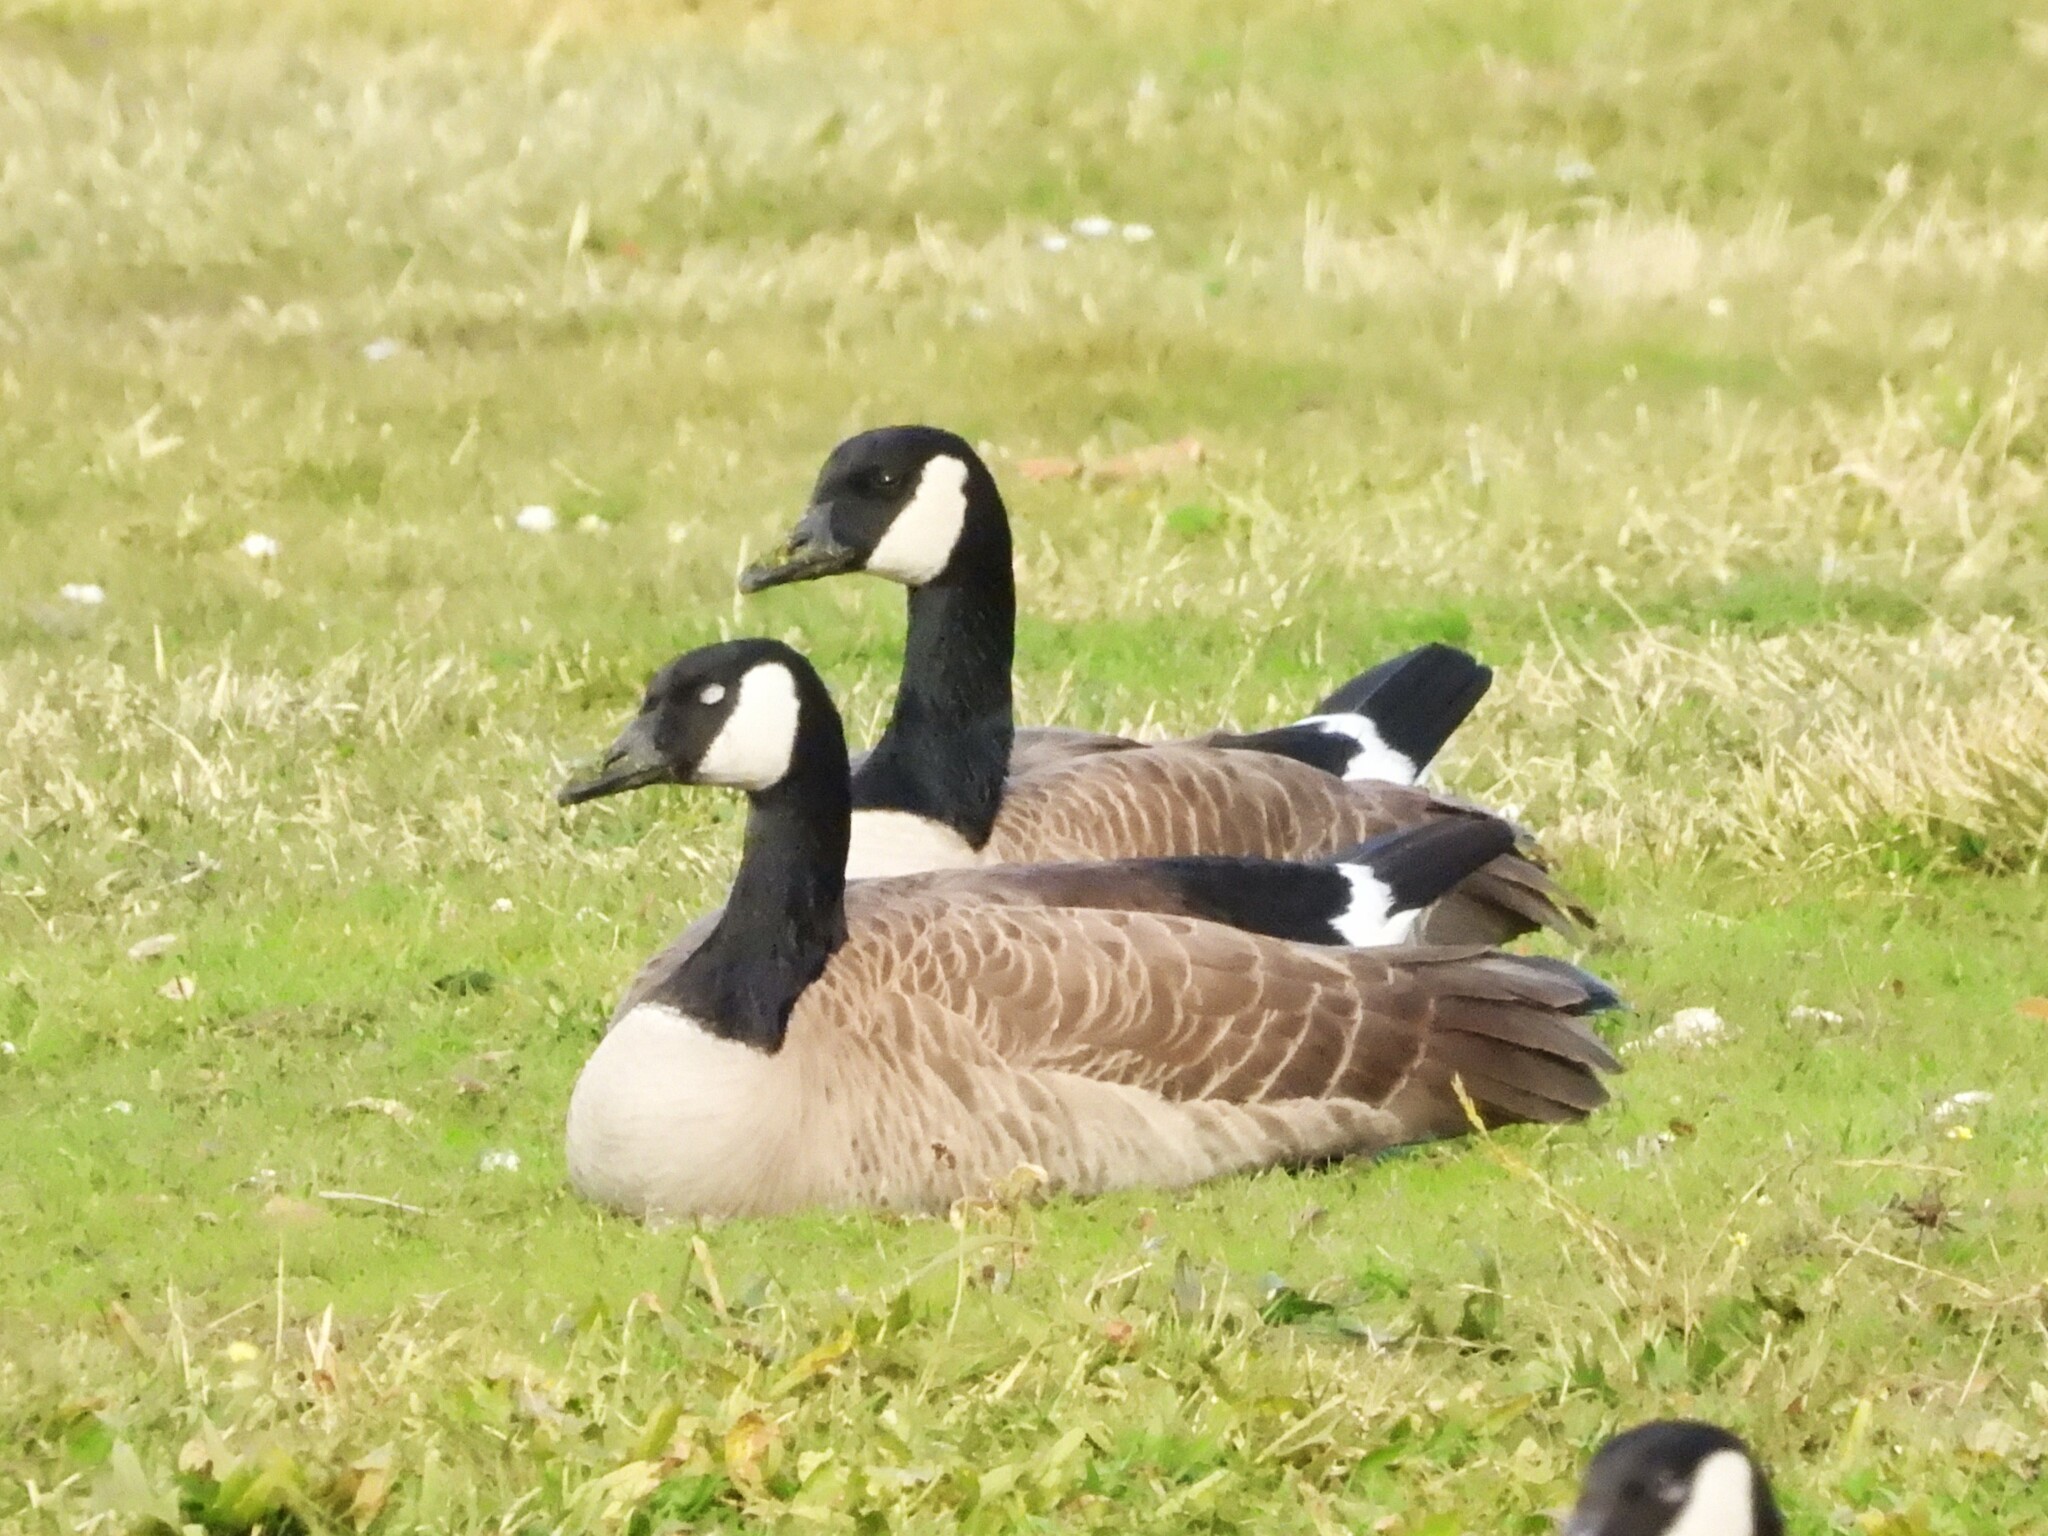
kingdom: Animalia
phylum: Chordata
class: Aves
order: Anseriformes
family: Anatidae
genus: Branta
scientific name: Branta canadensis
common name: Canada goose
